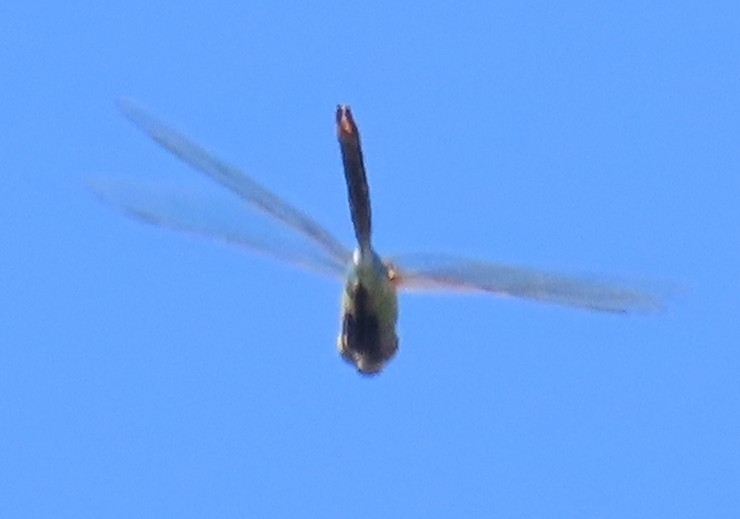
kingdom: Animalia
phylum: Arthropoda
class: Insecta
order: Odonata
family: Aeshnidae
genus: Anax
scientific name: Anax junius
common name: Common green darner
